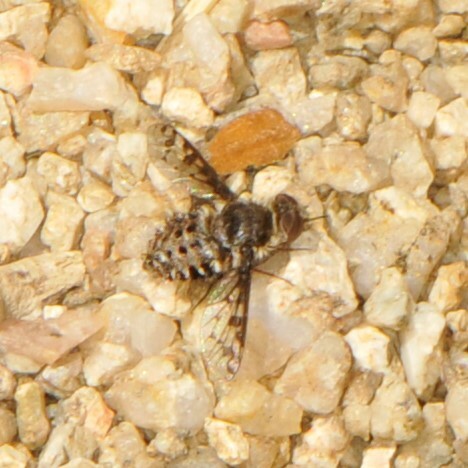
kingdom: Animalia
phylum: Arthropoda
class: Insecta
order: Diptera
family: Bombyliidae
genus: Lepidanthrax
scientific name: Lepidanthrax
